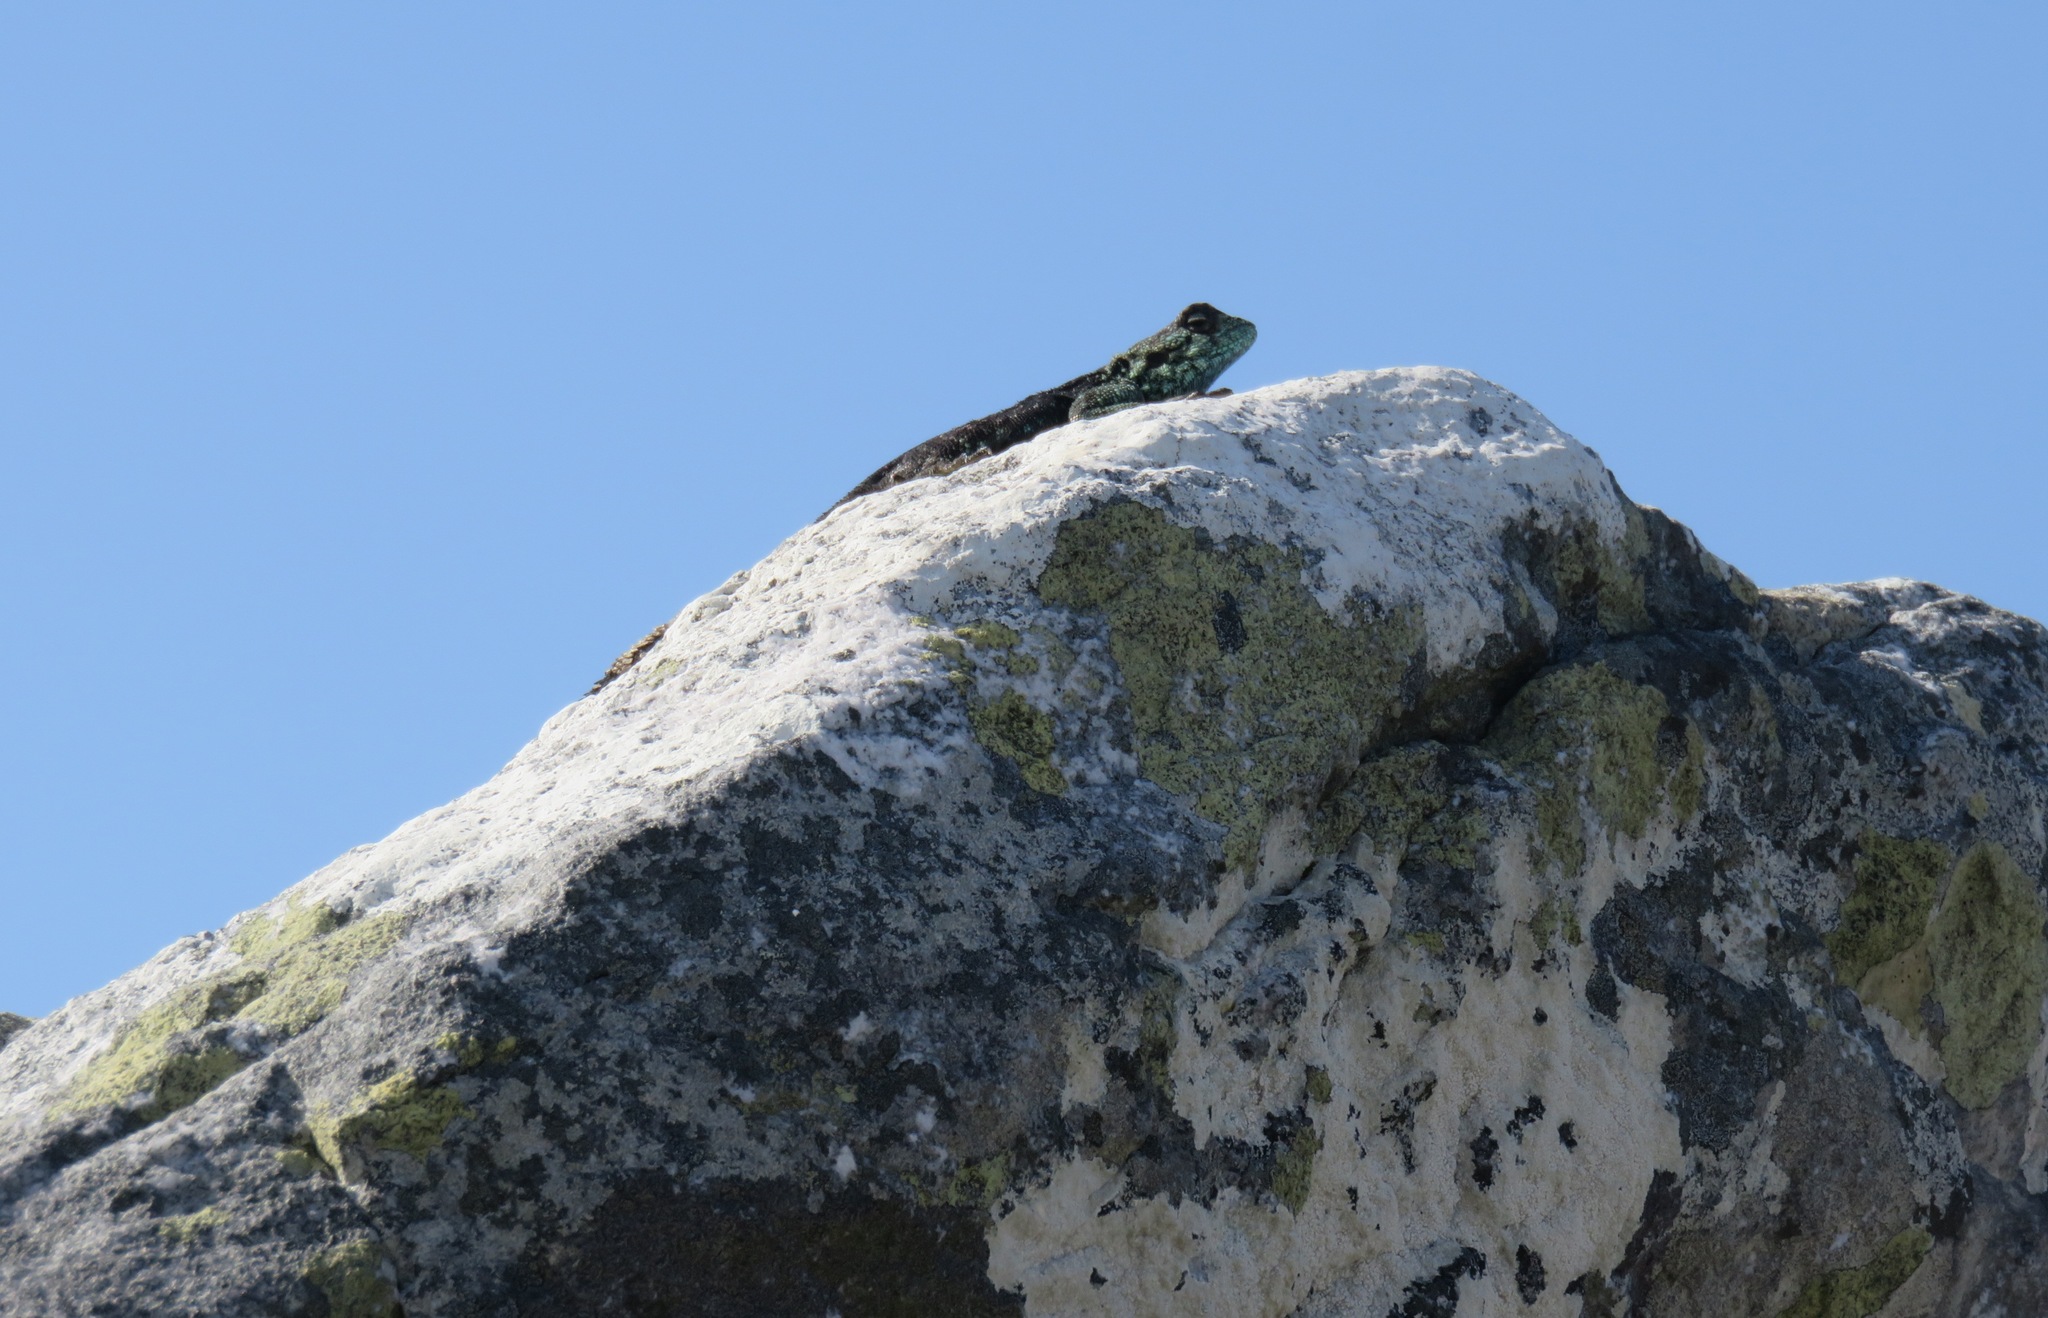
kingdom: Animalia
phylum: Chordata
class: Squamata
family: Agamidae
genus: Agama
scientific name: Agama atra
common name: Southern african rock agama
